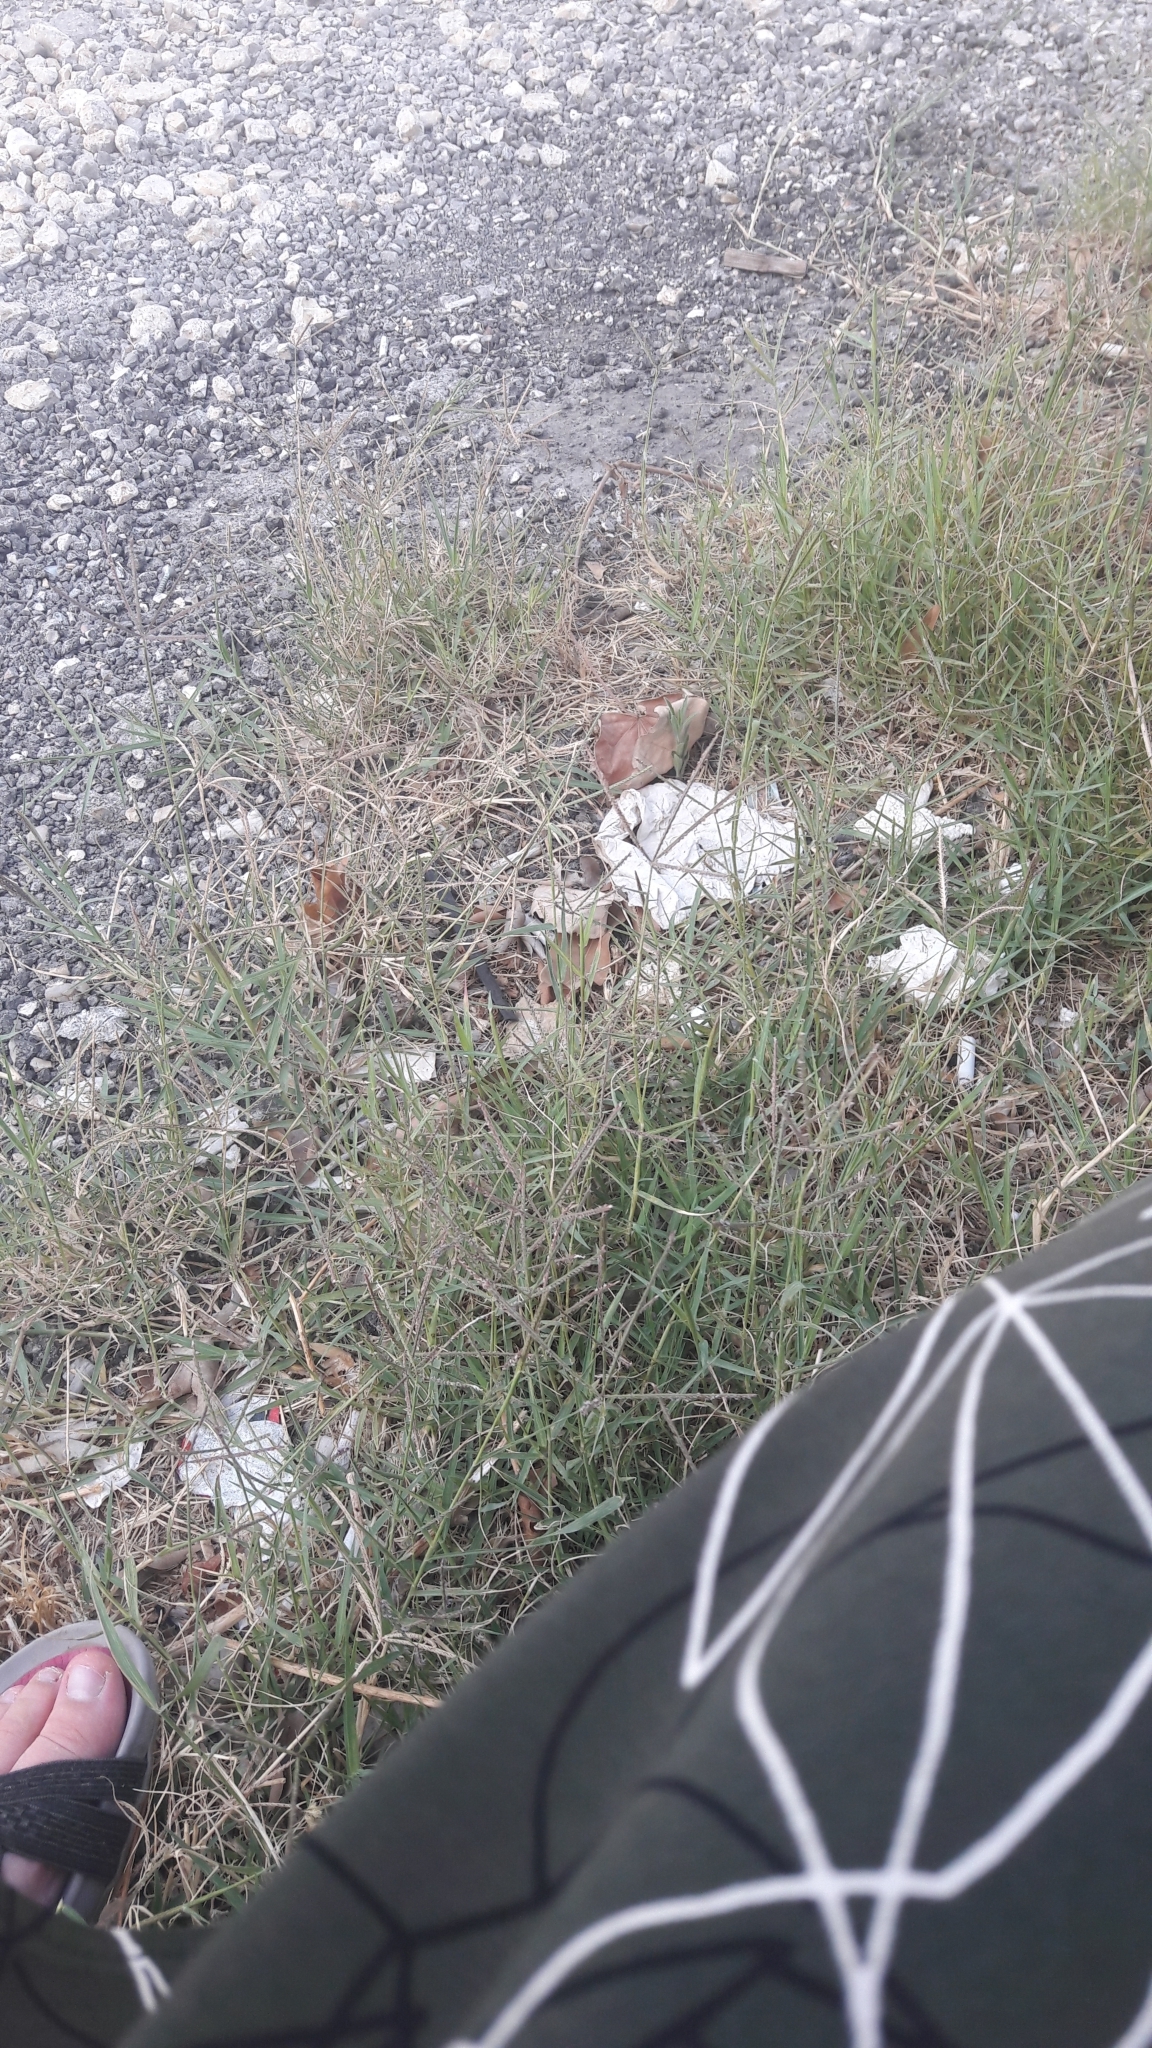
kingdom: Plantae
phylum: Tracheophyta
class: Liliopsida
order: Poales
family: Poaceae
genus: Cynodon
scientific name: Cynodon dactylon
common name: Bermuda grass
